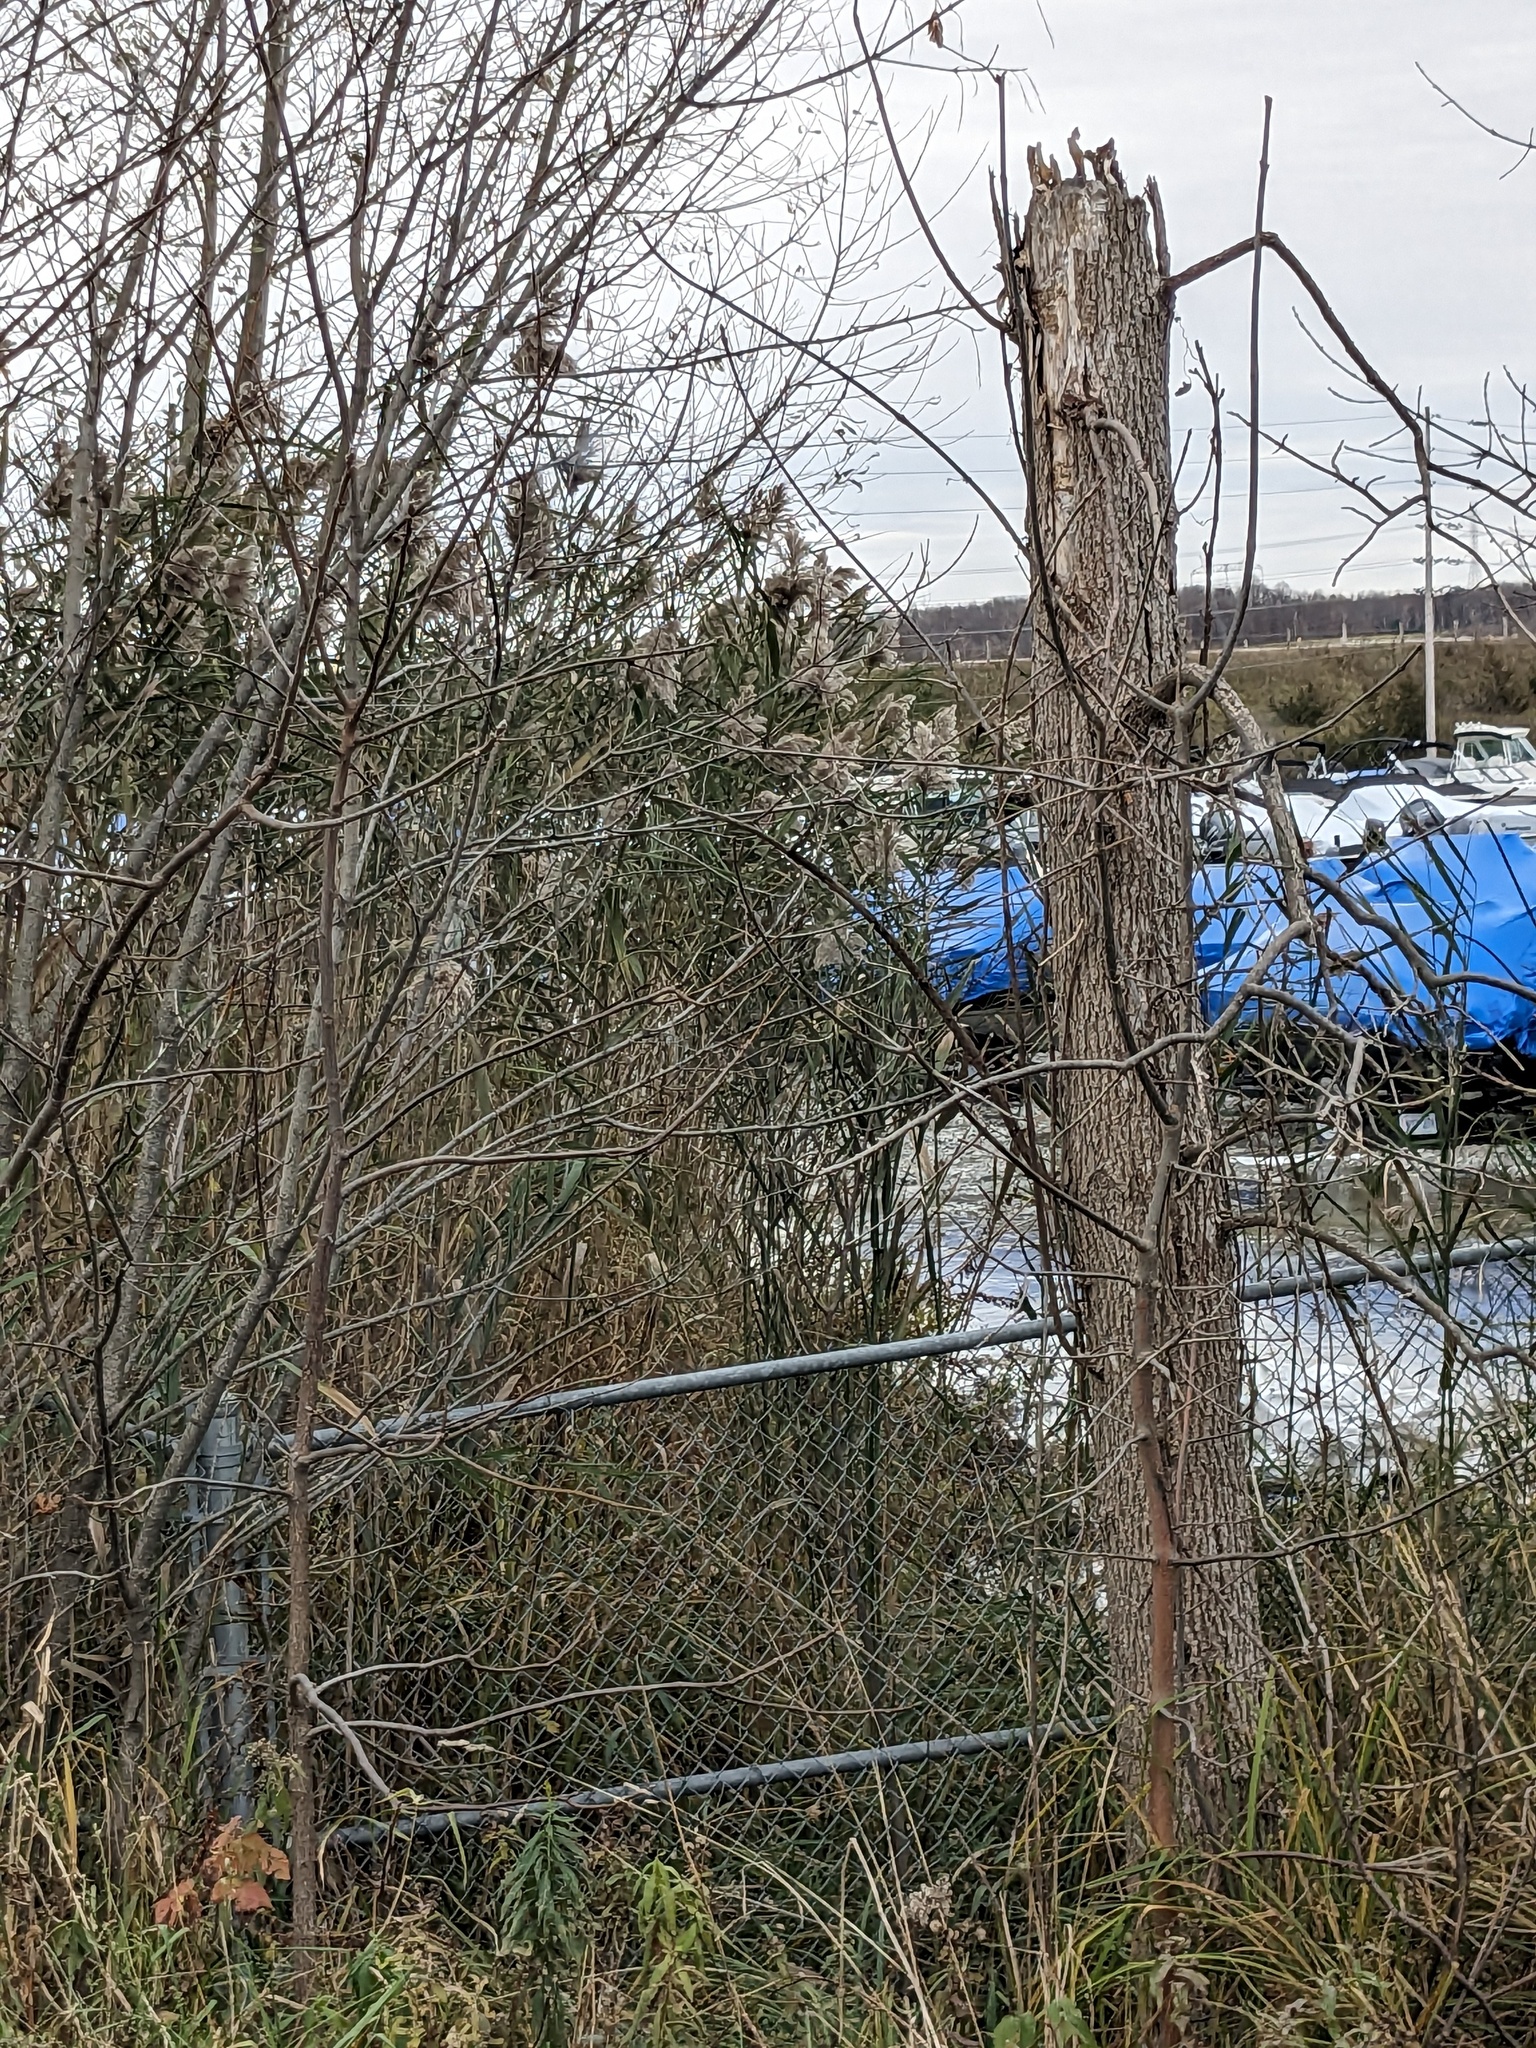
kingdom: Plantae
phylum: Tracheophyta
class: Liliopsida
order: Poales
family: Poaceae
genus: Phragmites
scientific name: Phragmites australis
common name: Common reed
